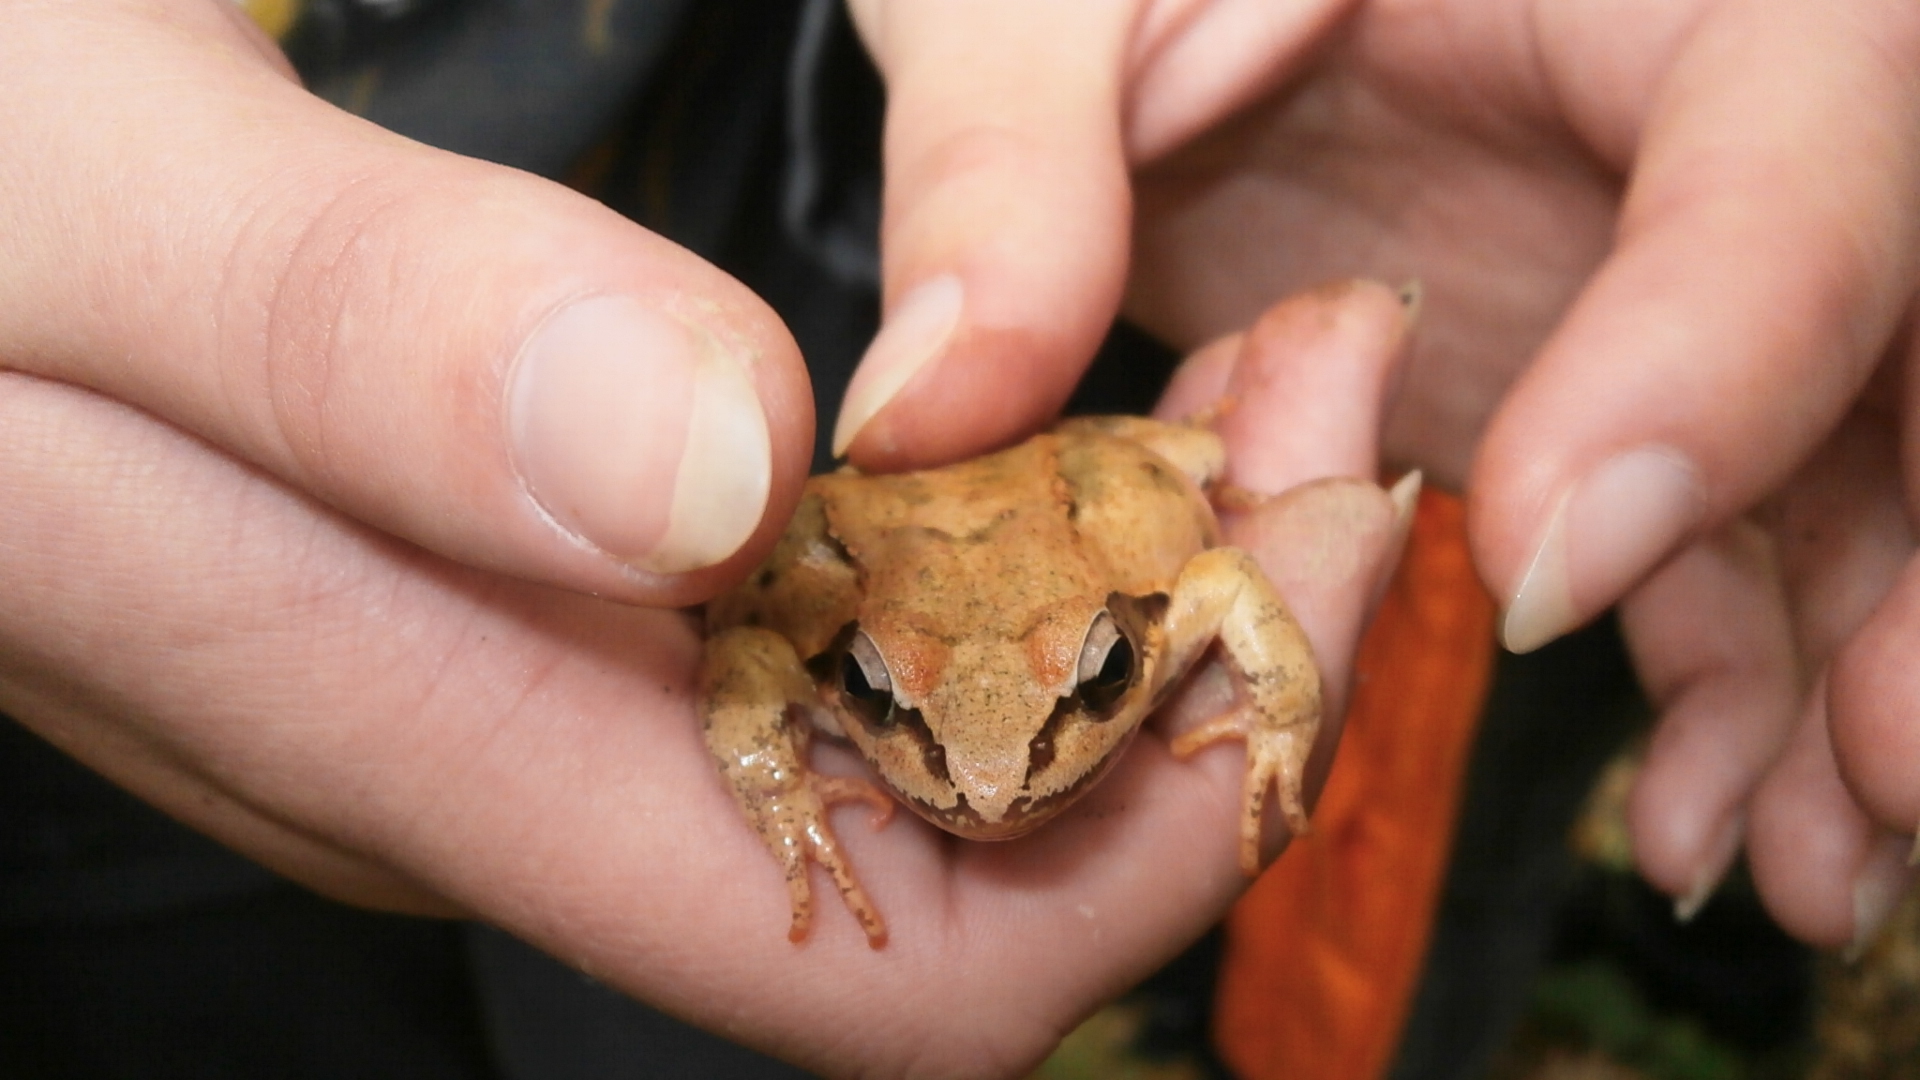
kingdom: Animalia
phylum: Chordata
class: Amphibia
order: Anura
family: Ranidae
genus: Rana
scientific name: Rana macrocnemis
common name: Banded frog
